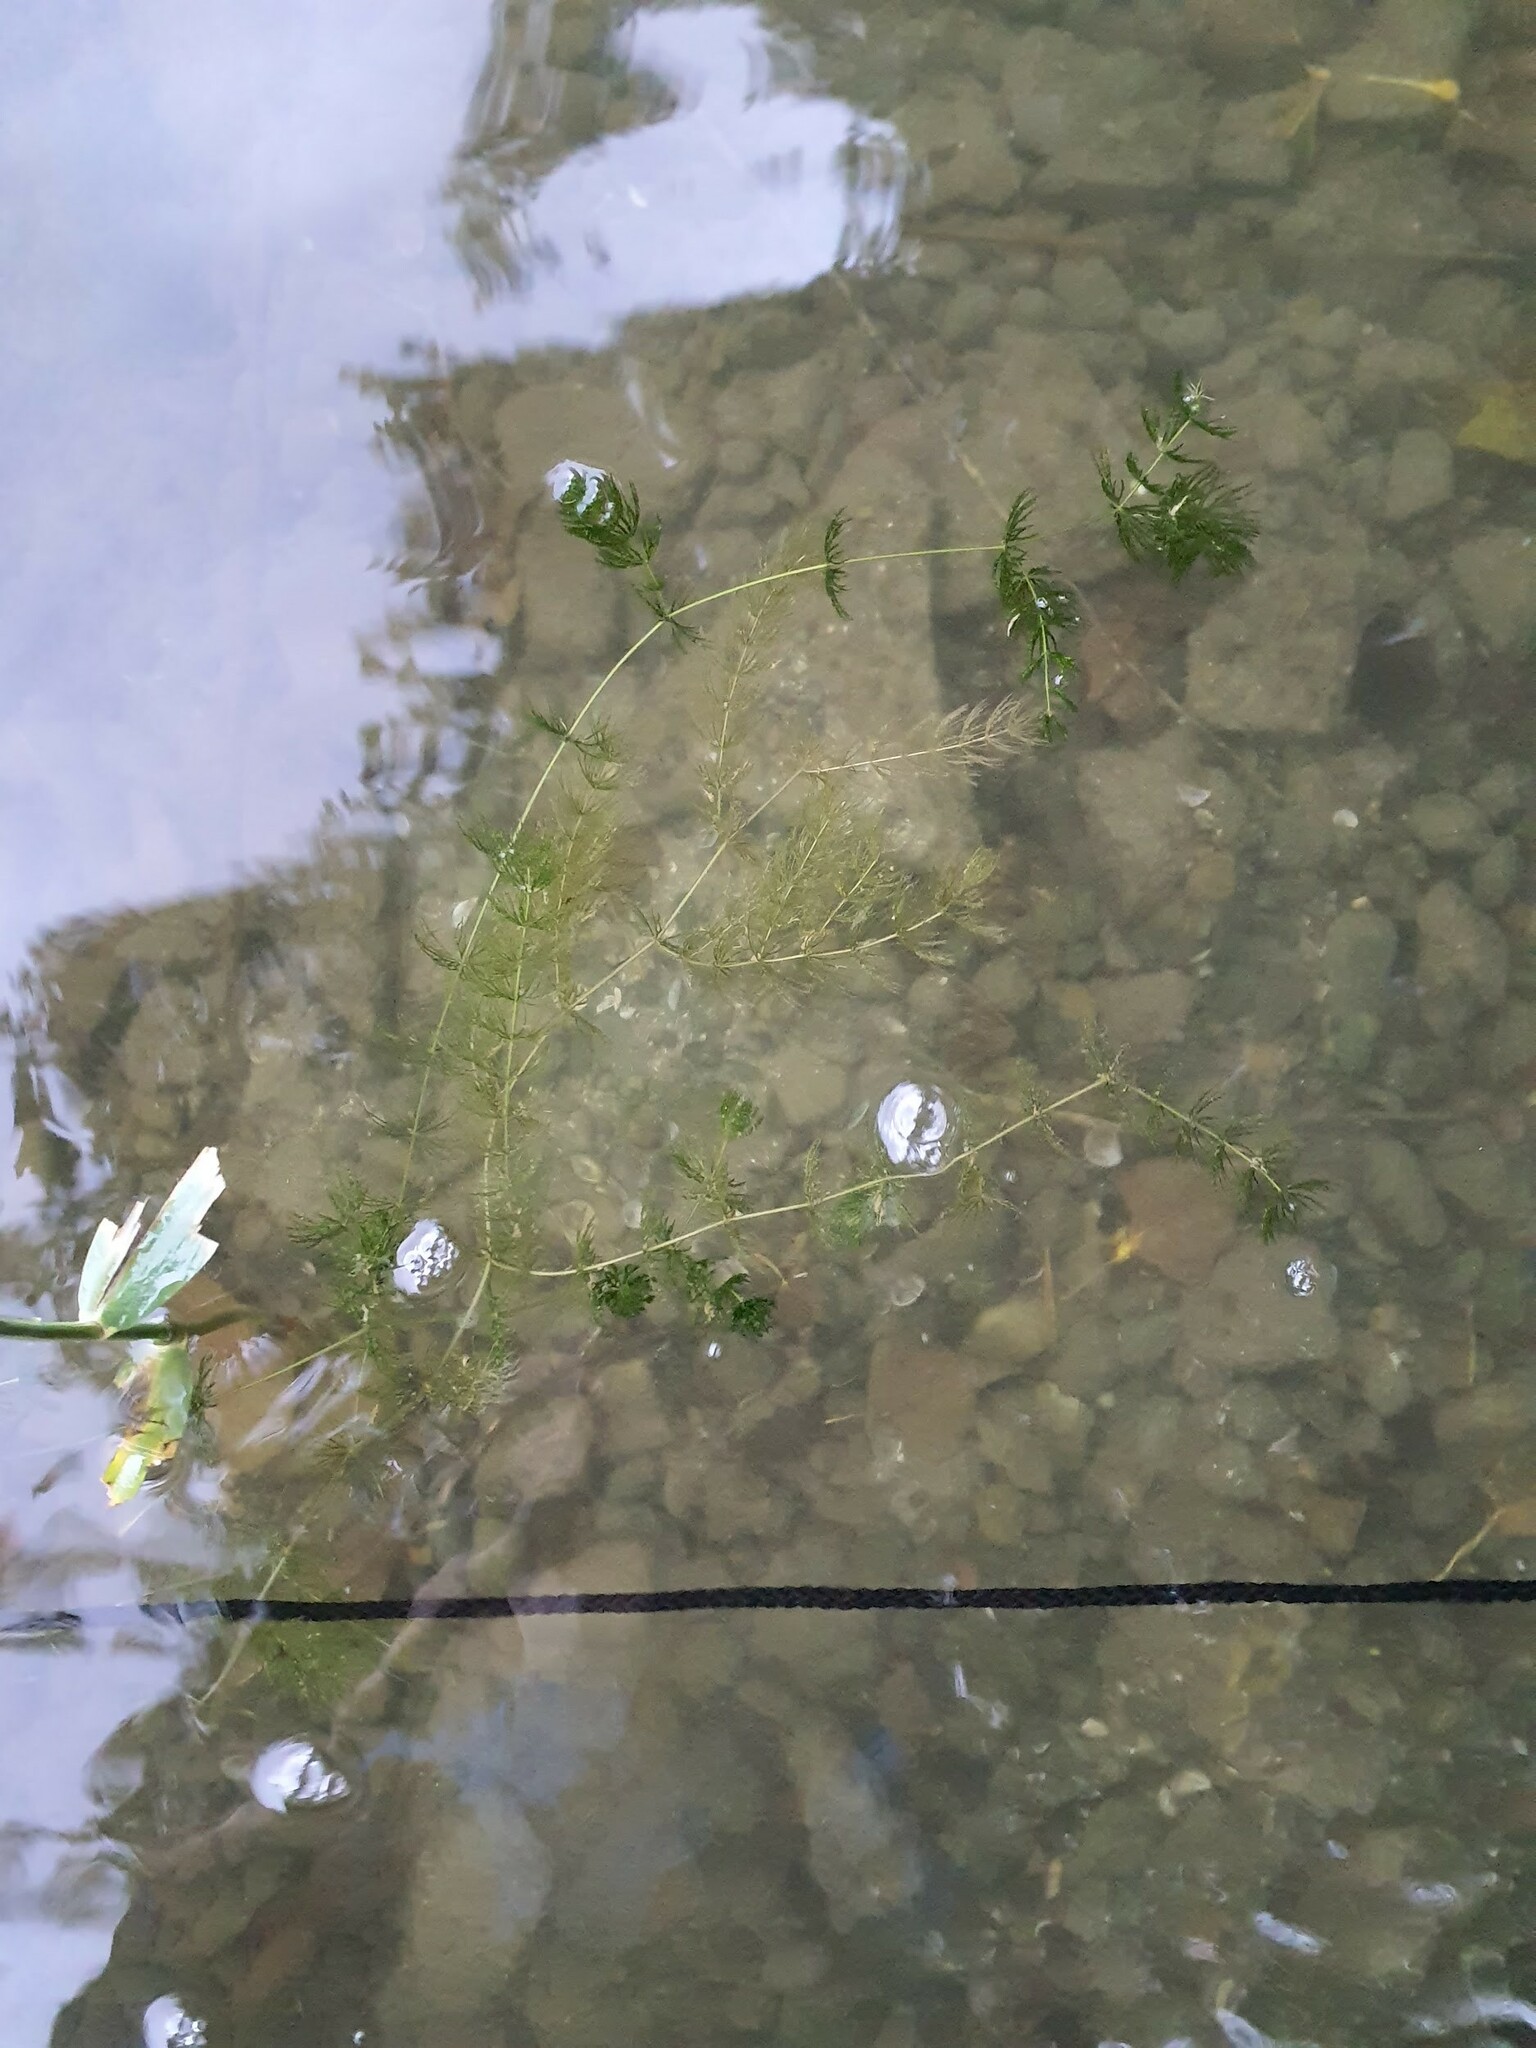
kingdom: Plantae
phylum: Tracheophyta
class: Magnoliopsida
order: Ceratophyllales
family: Ceratophyllaceae
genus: Ceratophyllum
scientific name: Ceratophyllum demersum
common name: Rigid hornwort
